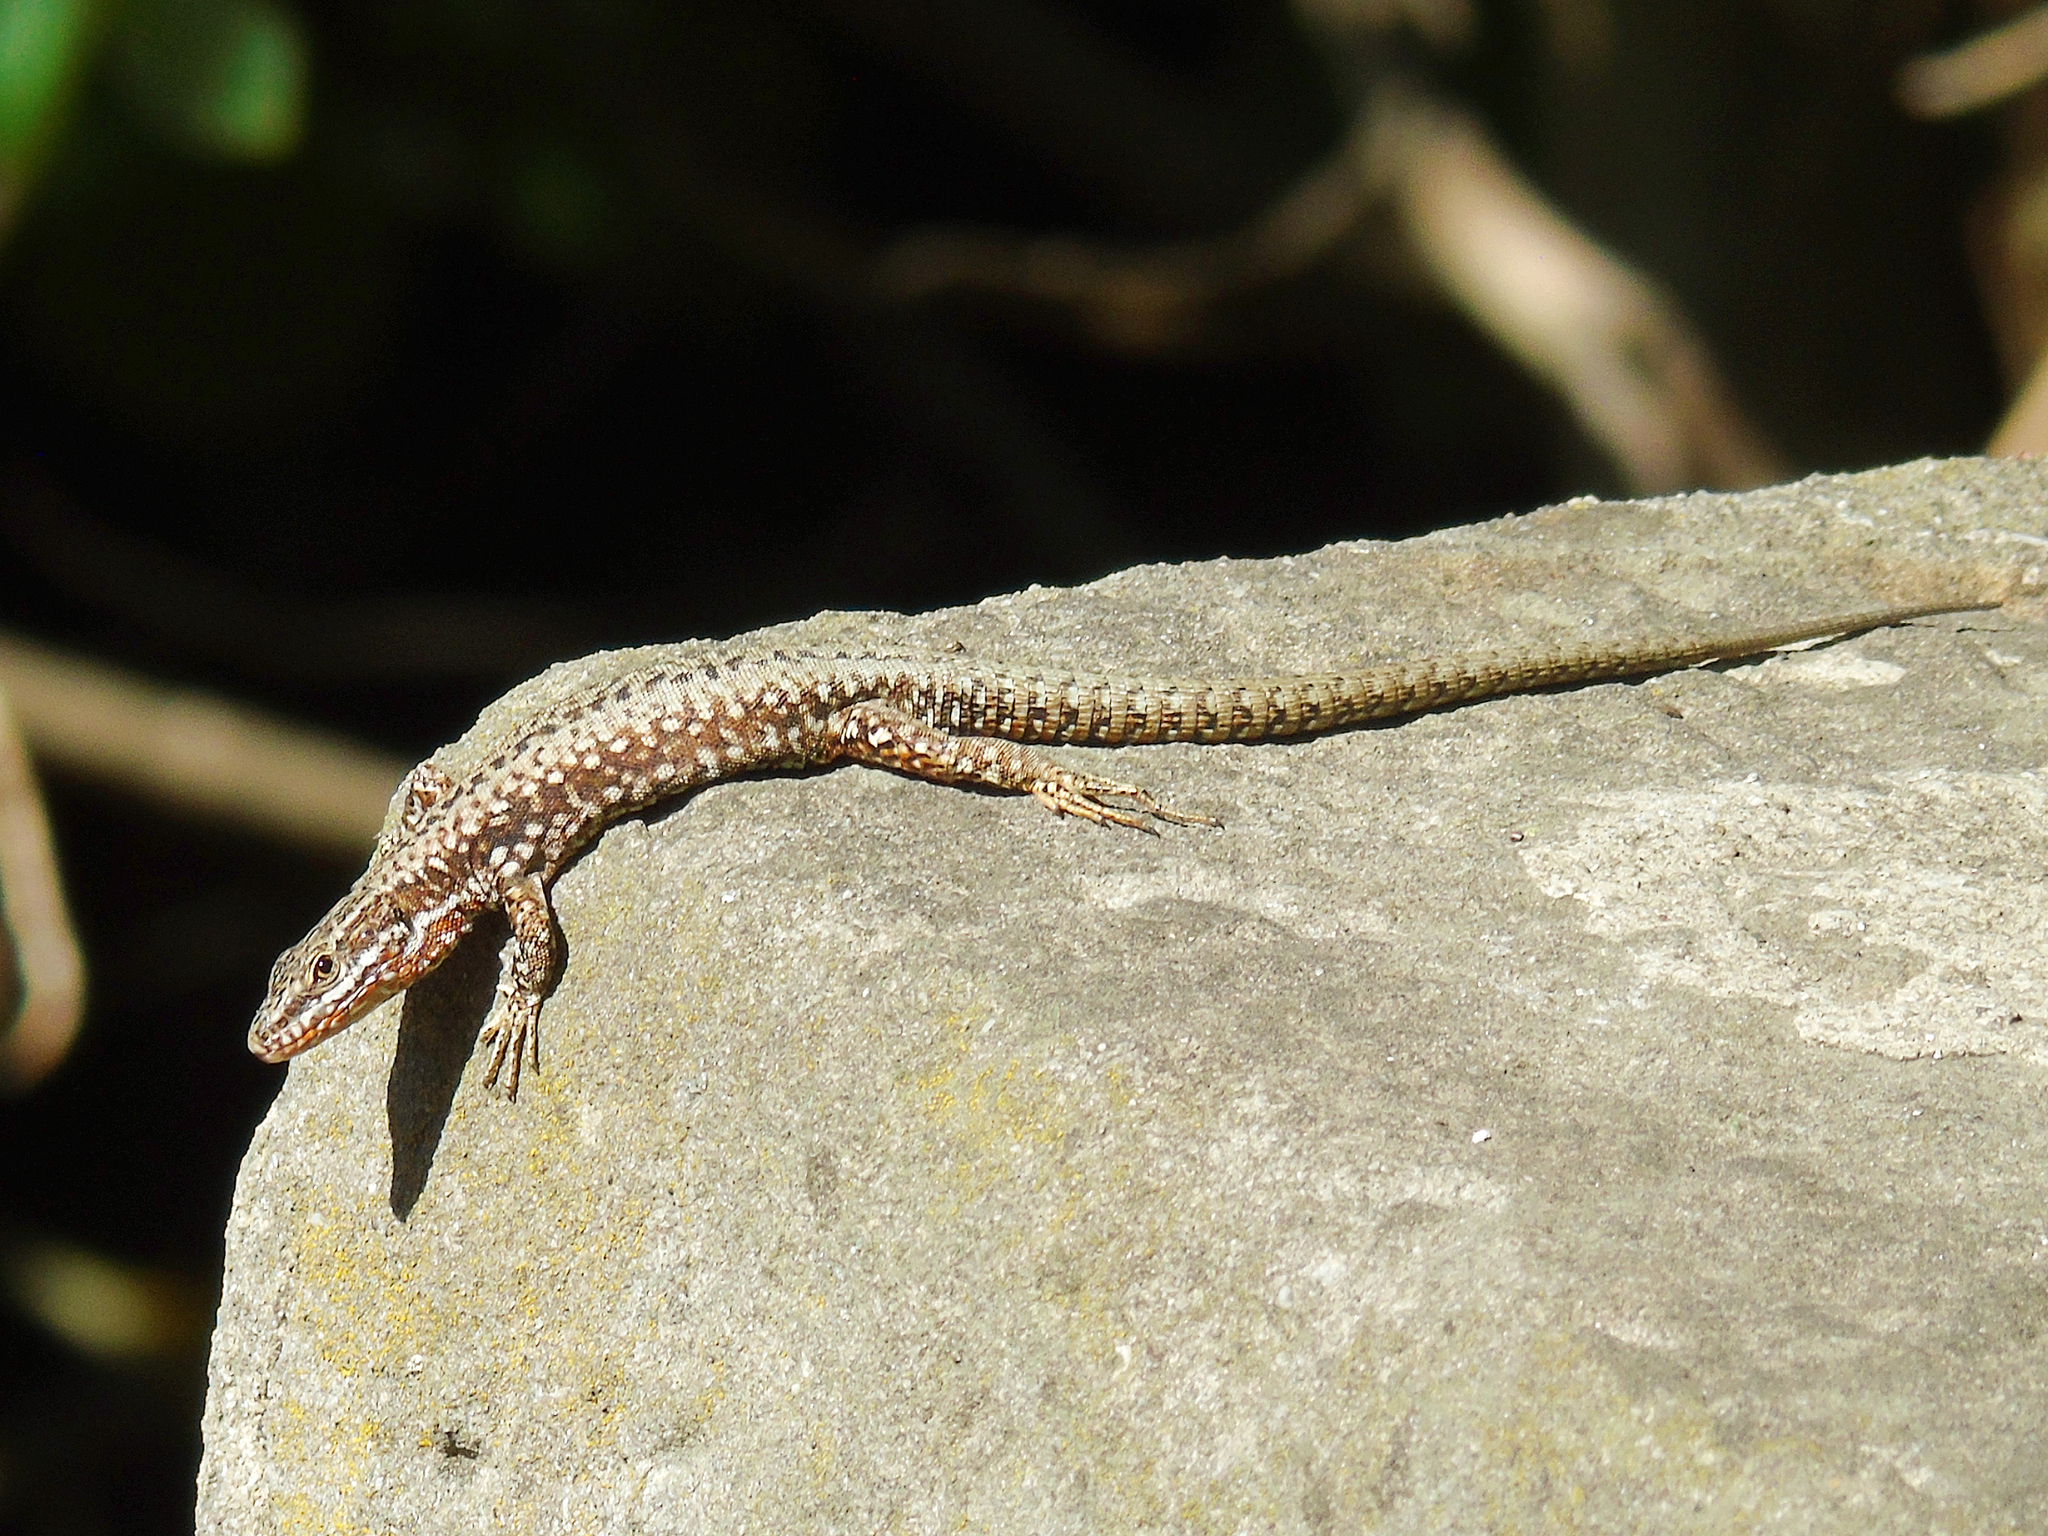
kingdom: Animalia
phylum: Chordata
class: Squamata
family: Lacertidae
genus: Podarcis
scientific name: Podarcis muralis
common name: Common wall lizard
